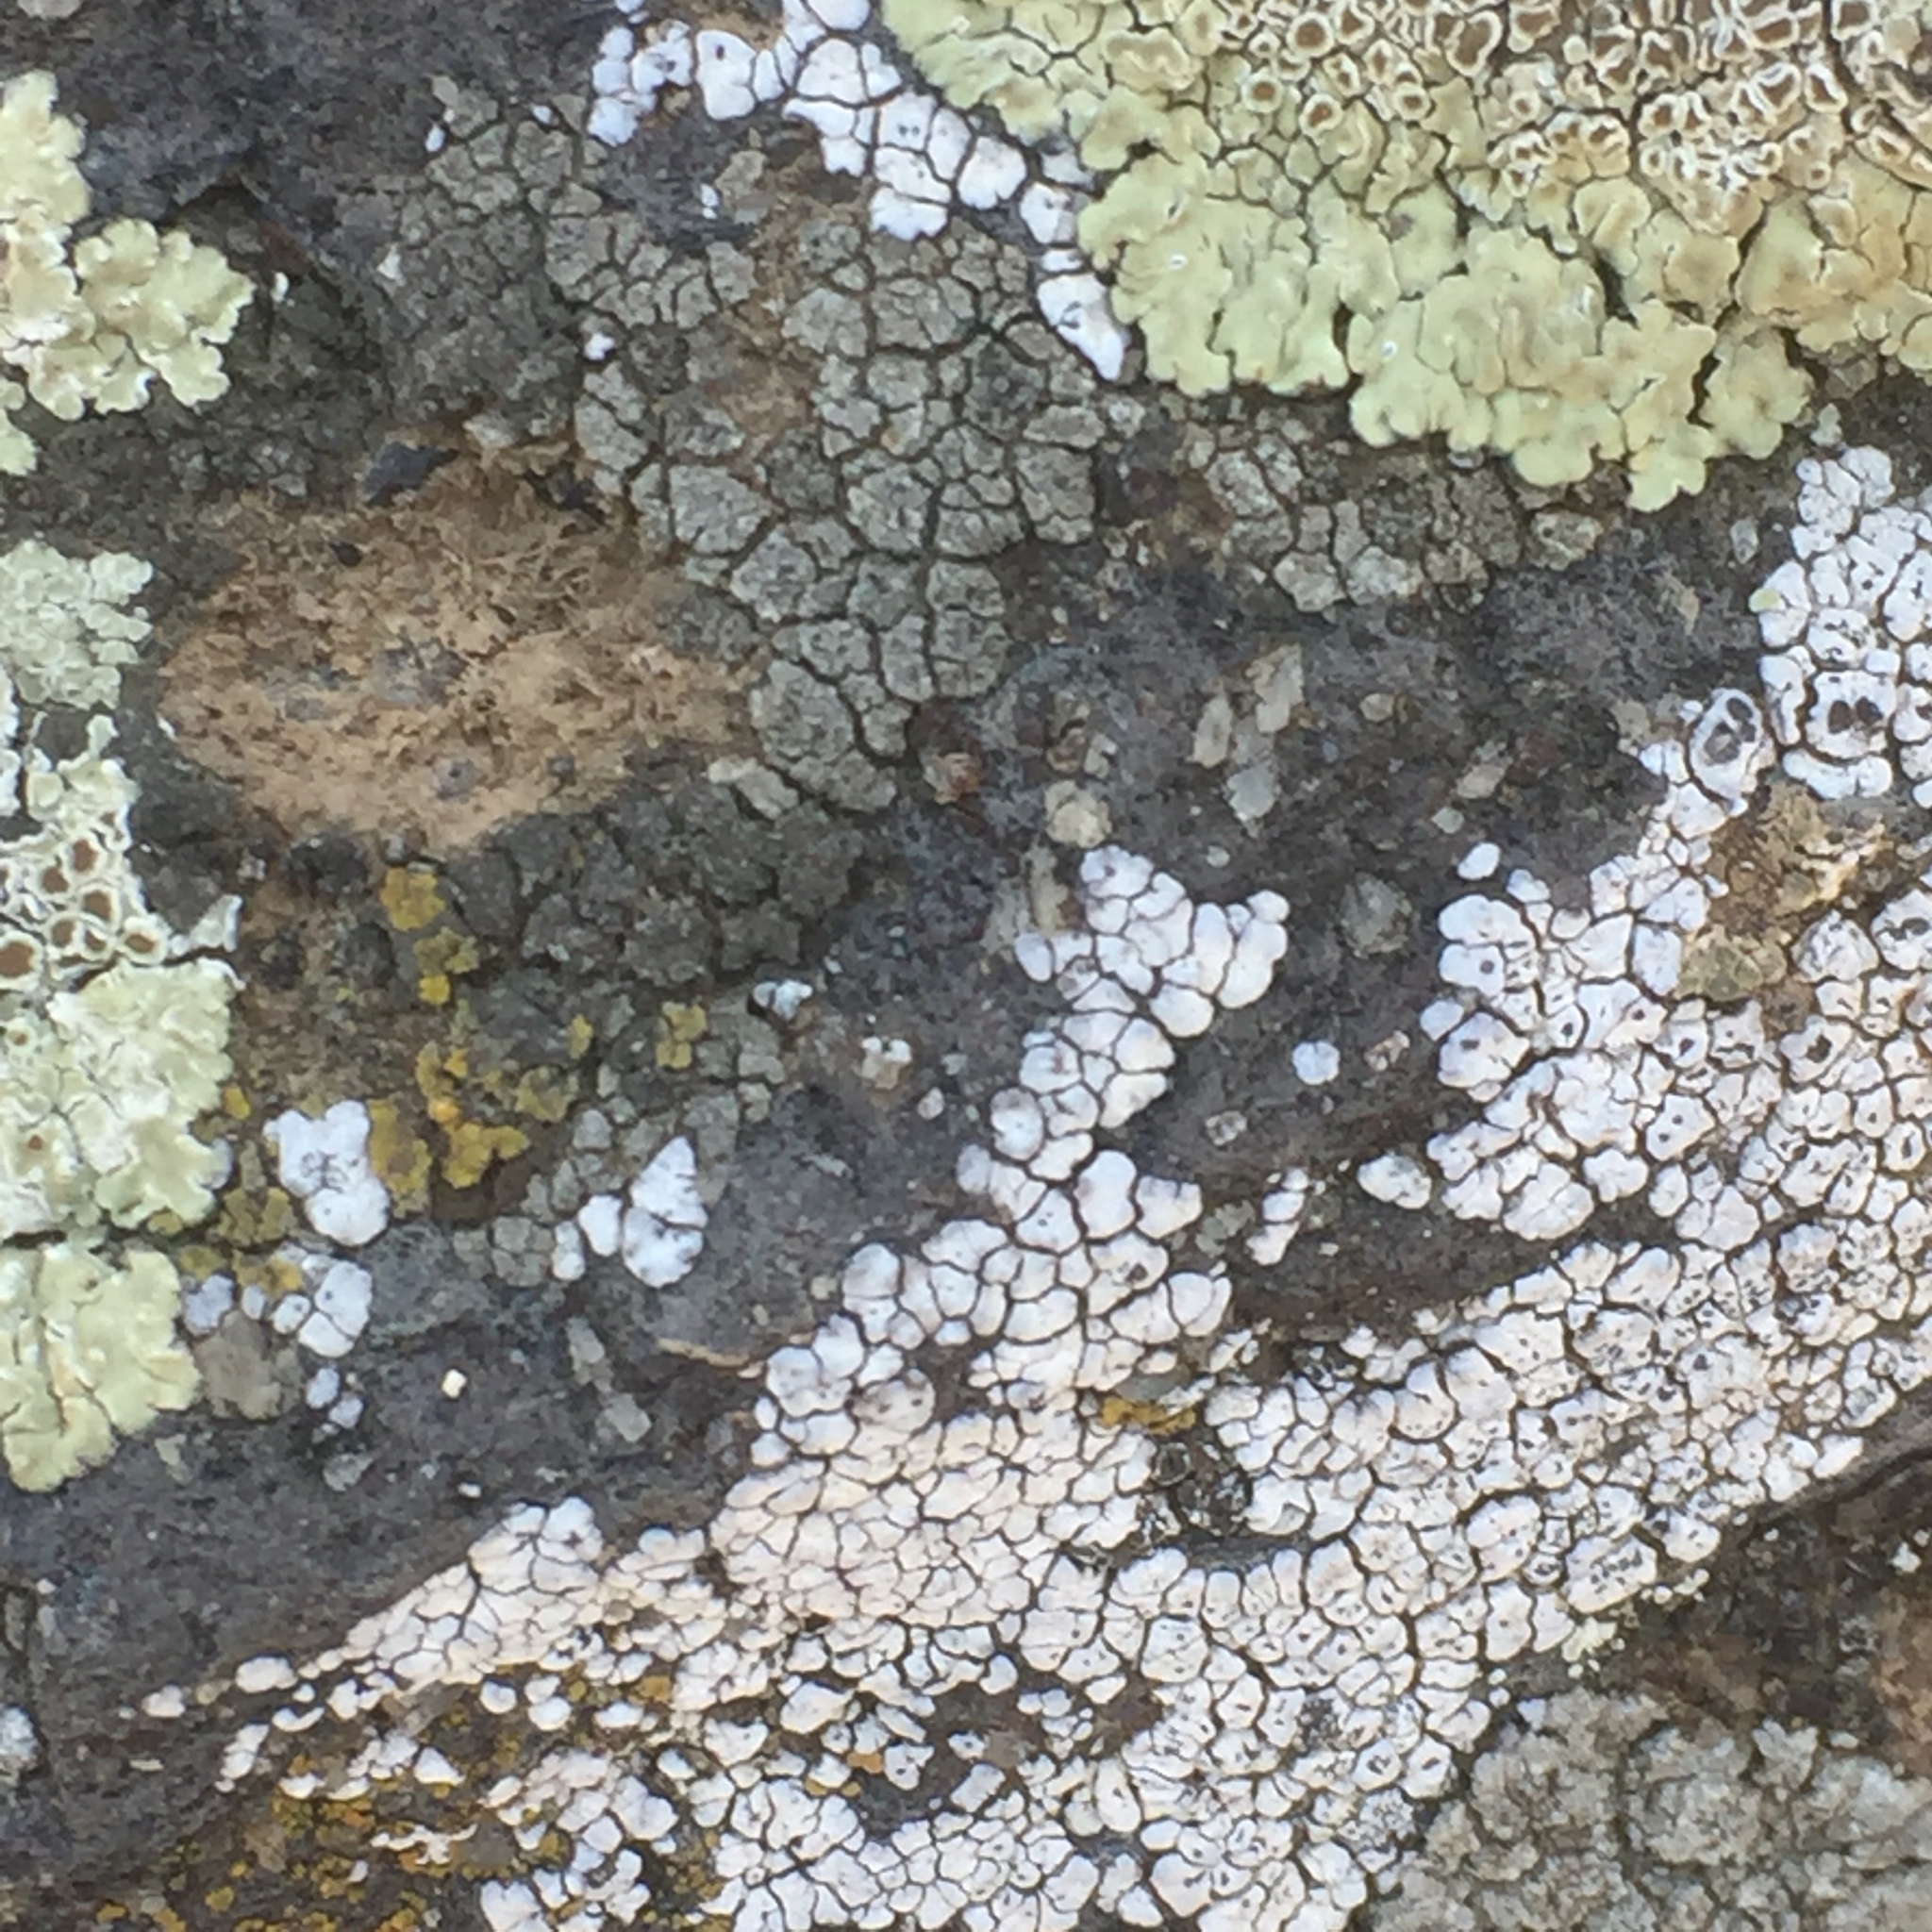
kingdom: Fungi
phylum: Ascomycota
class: Lecanoromycetes
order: Acarosporales
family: Acarosporaceae
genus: Acarospora
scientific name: Acarospora strigata
